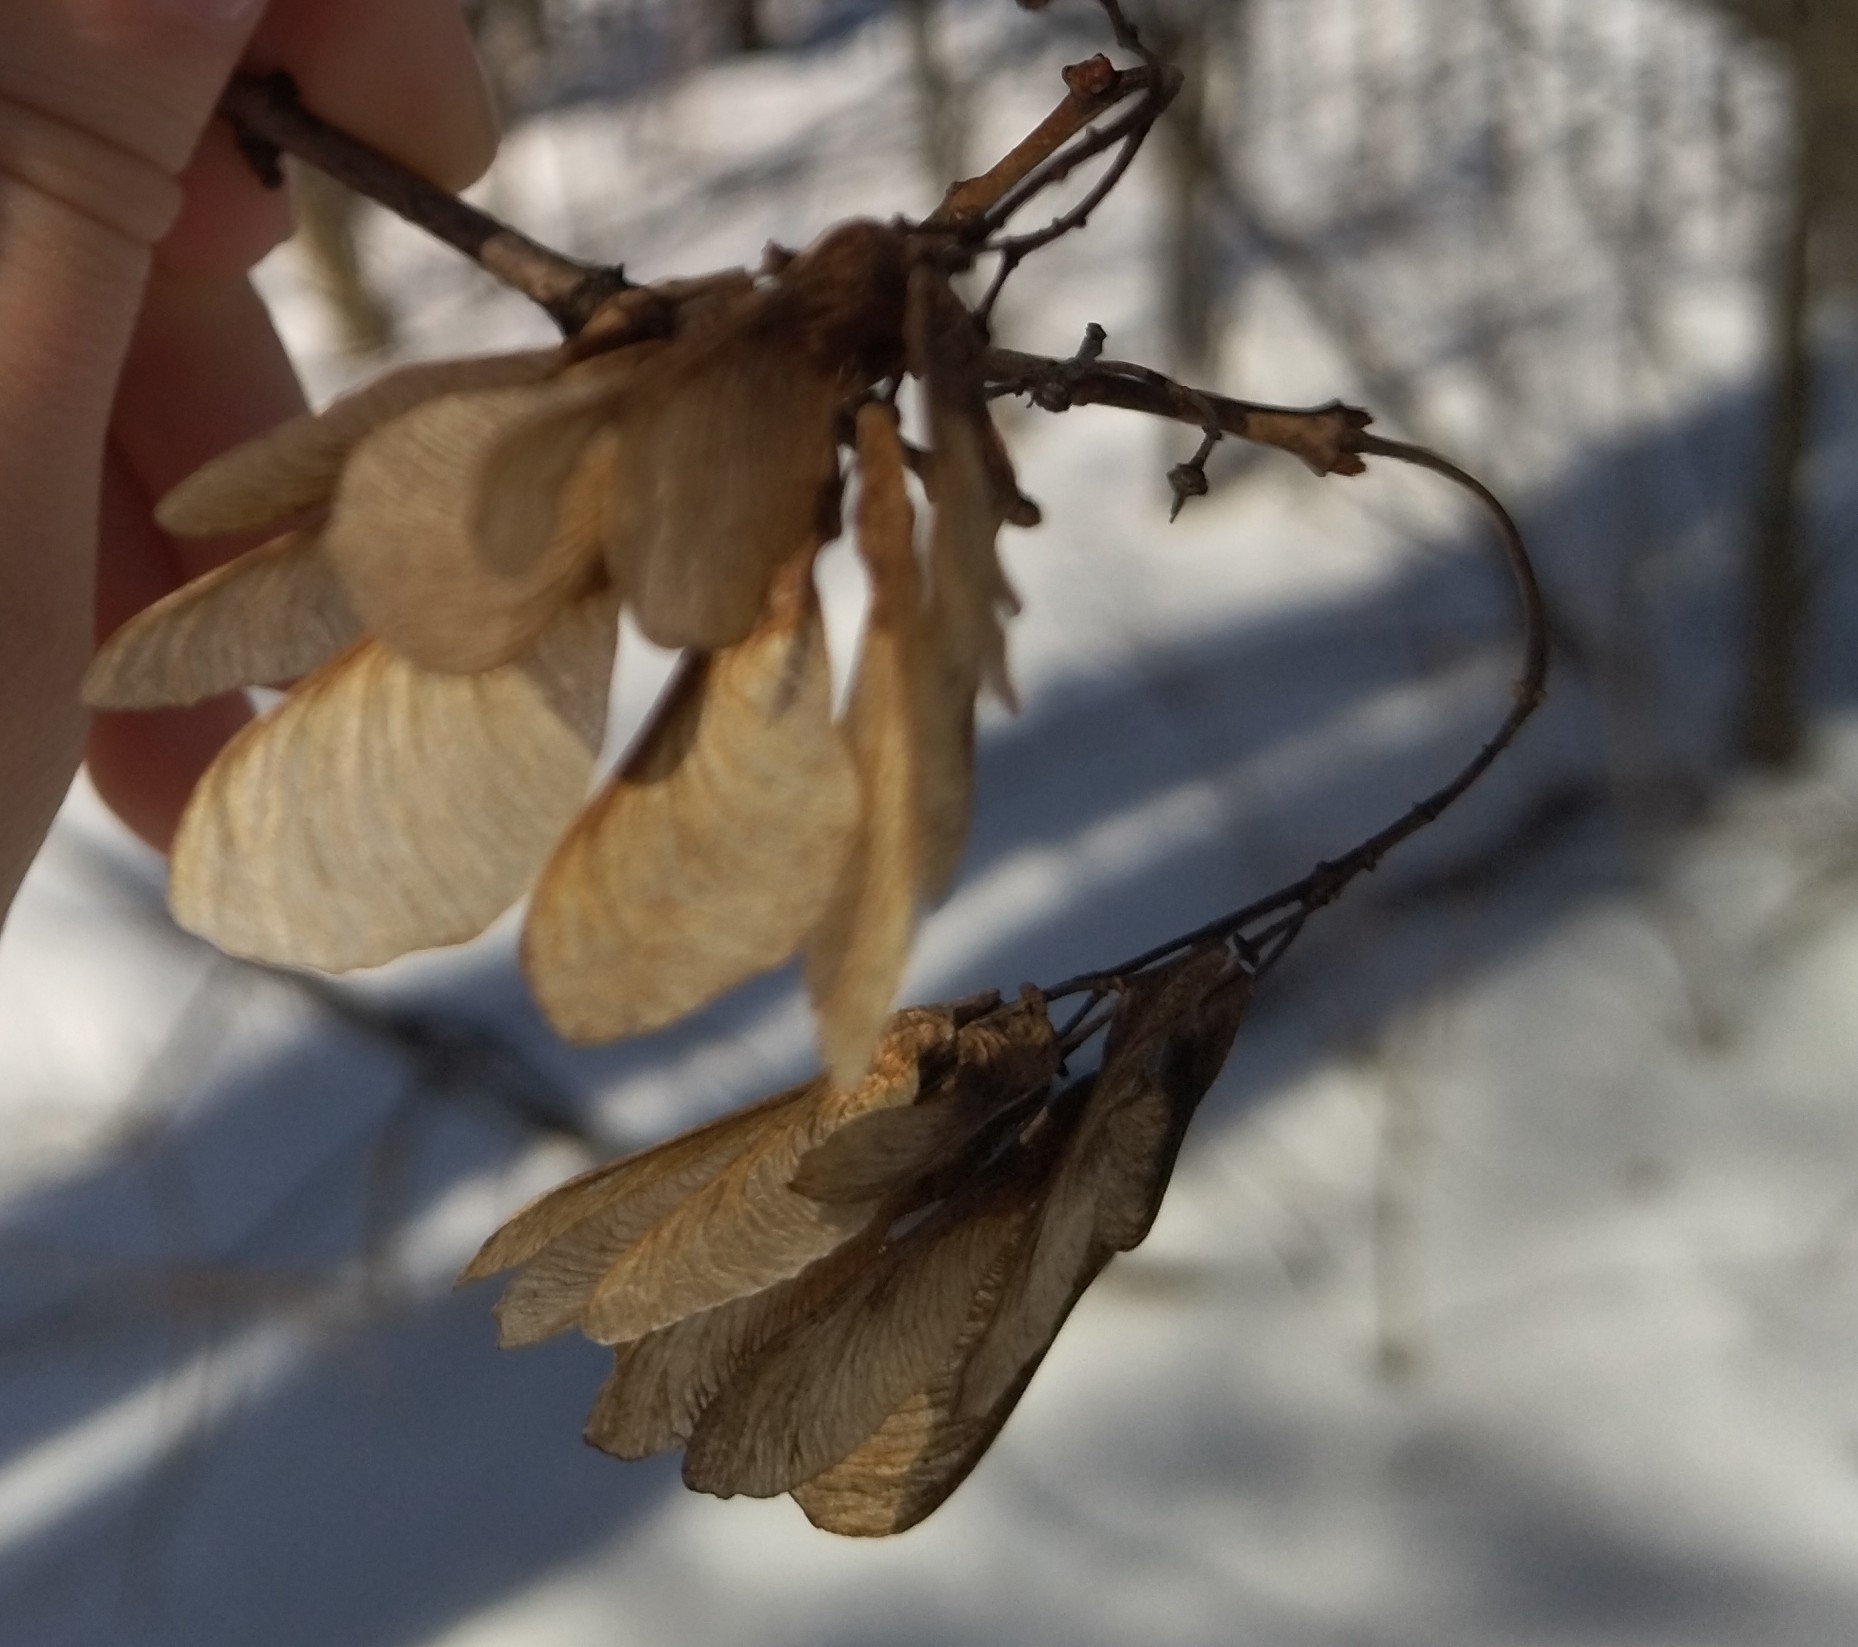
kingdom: Plantae
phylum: Tracheophyta
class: Magnoliopsida
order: Sapindales
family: Sapindaceae
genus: Acer
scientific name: Acer negundo
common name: Ashleaf maple
